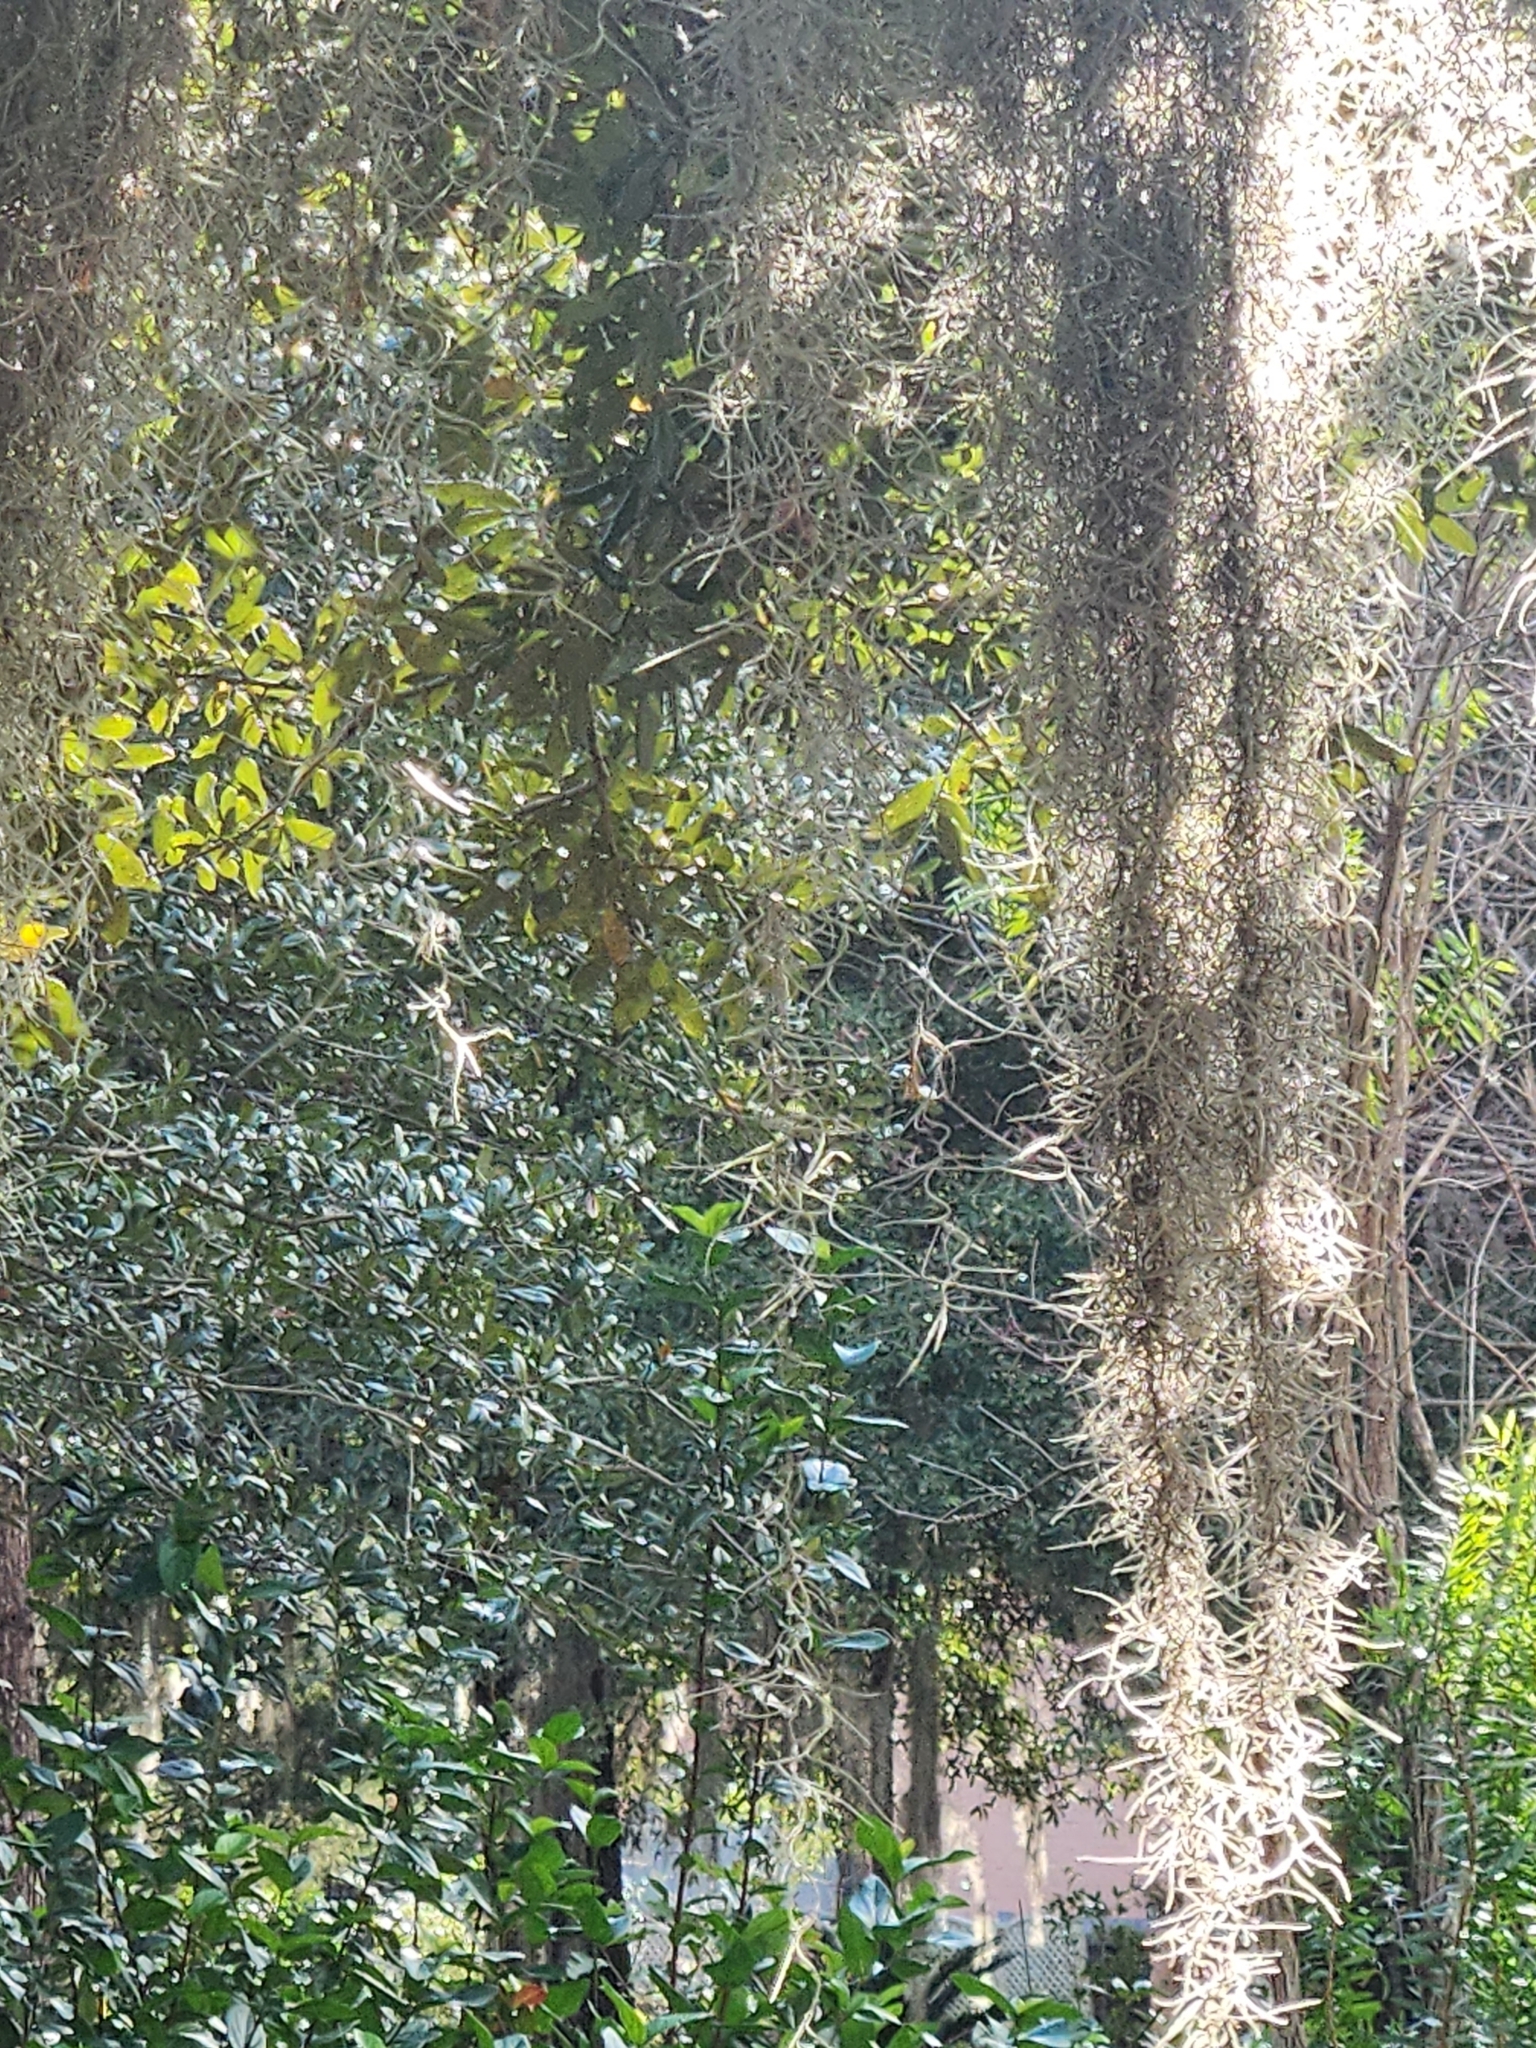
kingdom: Plantae
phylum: Tracheophyta
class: Liliopsida
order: Poales
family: Bromeliaceae
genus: Tillandsia
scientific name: Tillandsia usneoides
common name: Spanish moss
